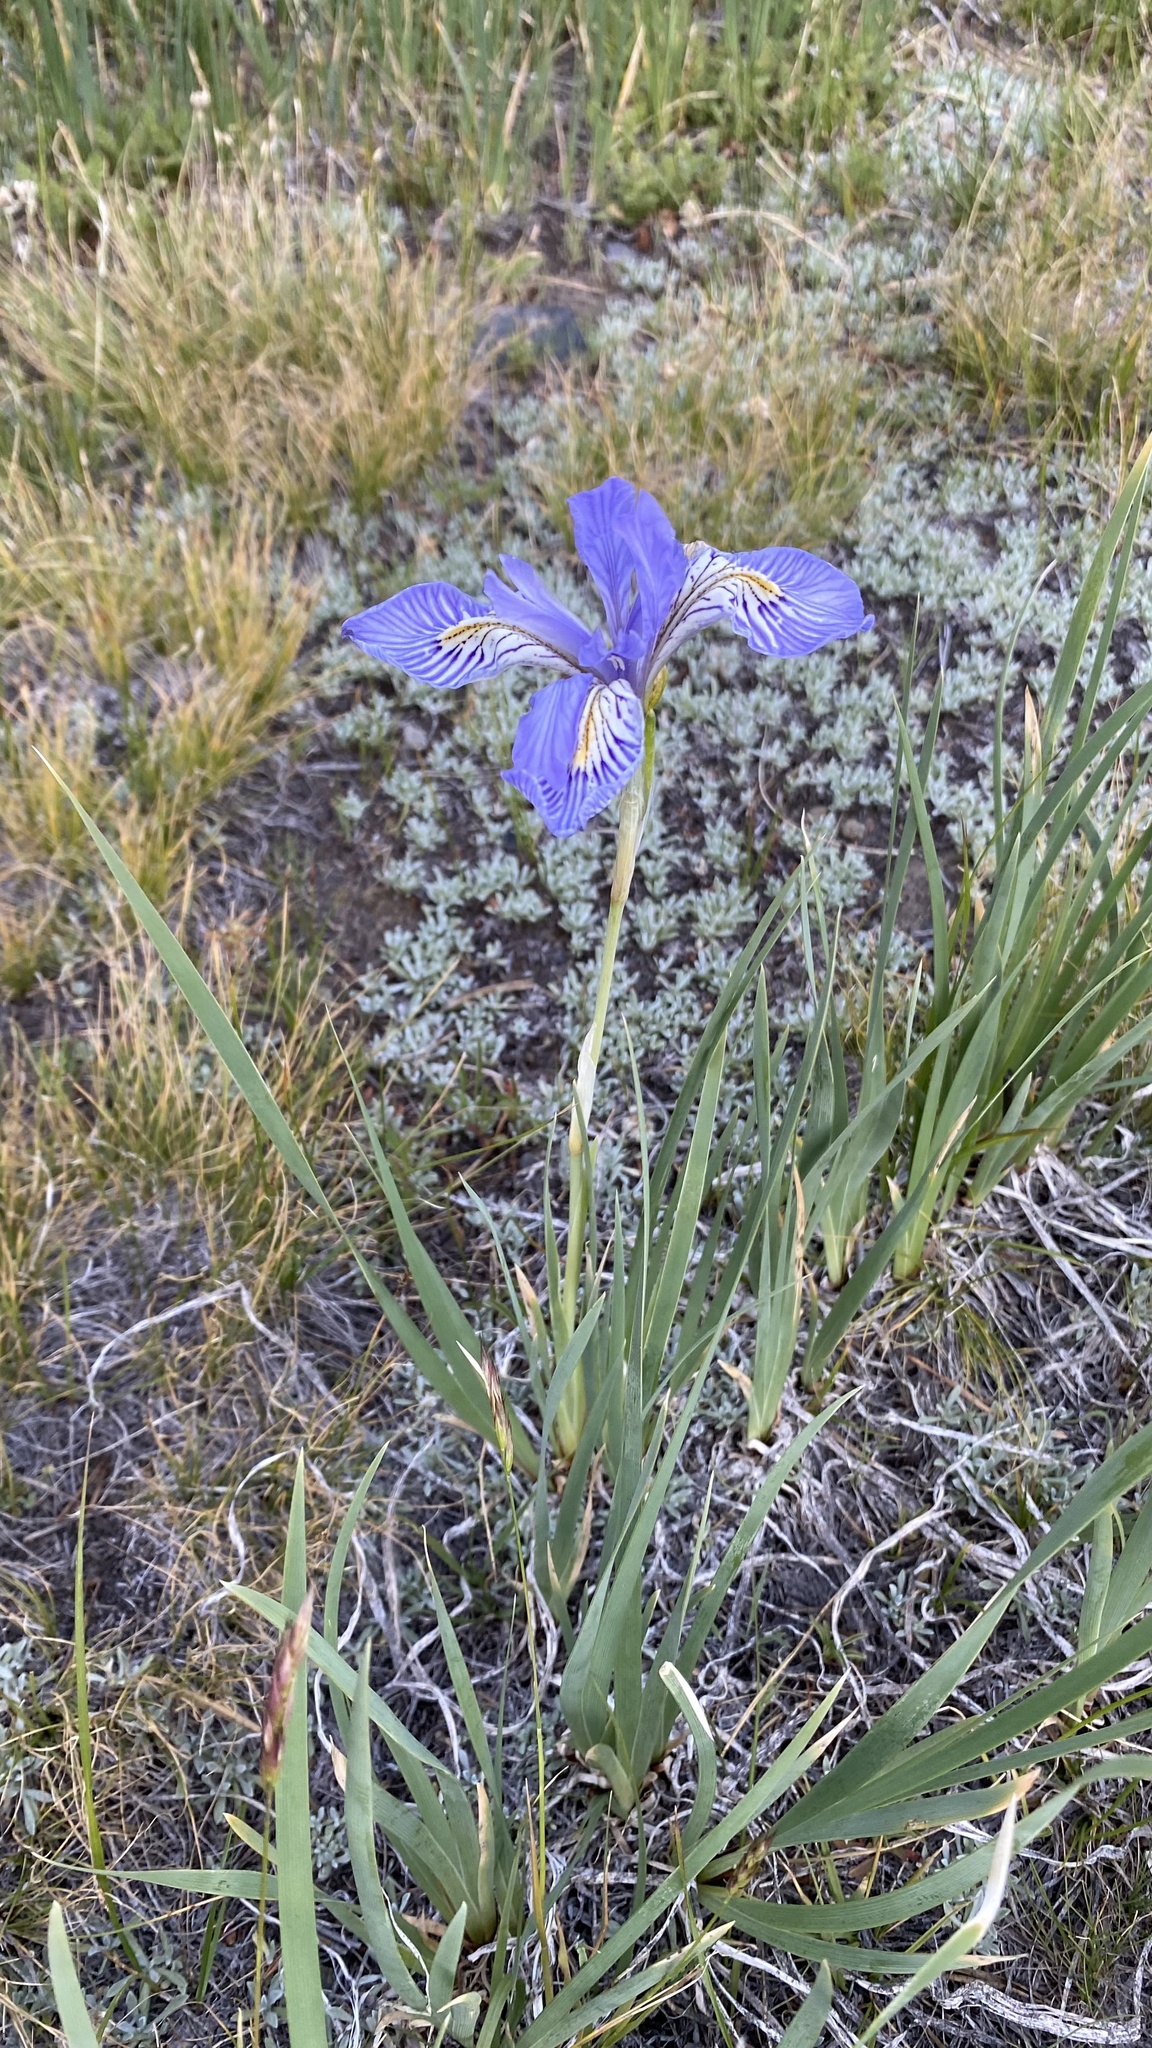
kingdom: Plantae
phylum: Tracheophyta
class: Liliopsida
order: Asparagales
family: Iridaceae
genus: Iris
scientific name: Iris missouriensis
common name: Rocky mountain iris
